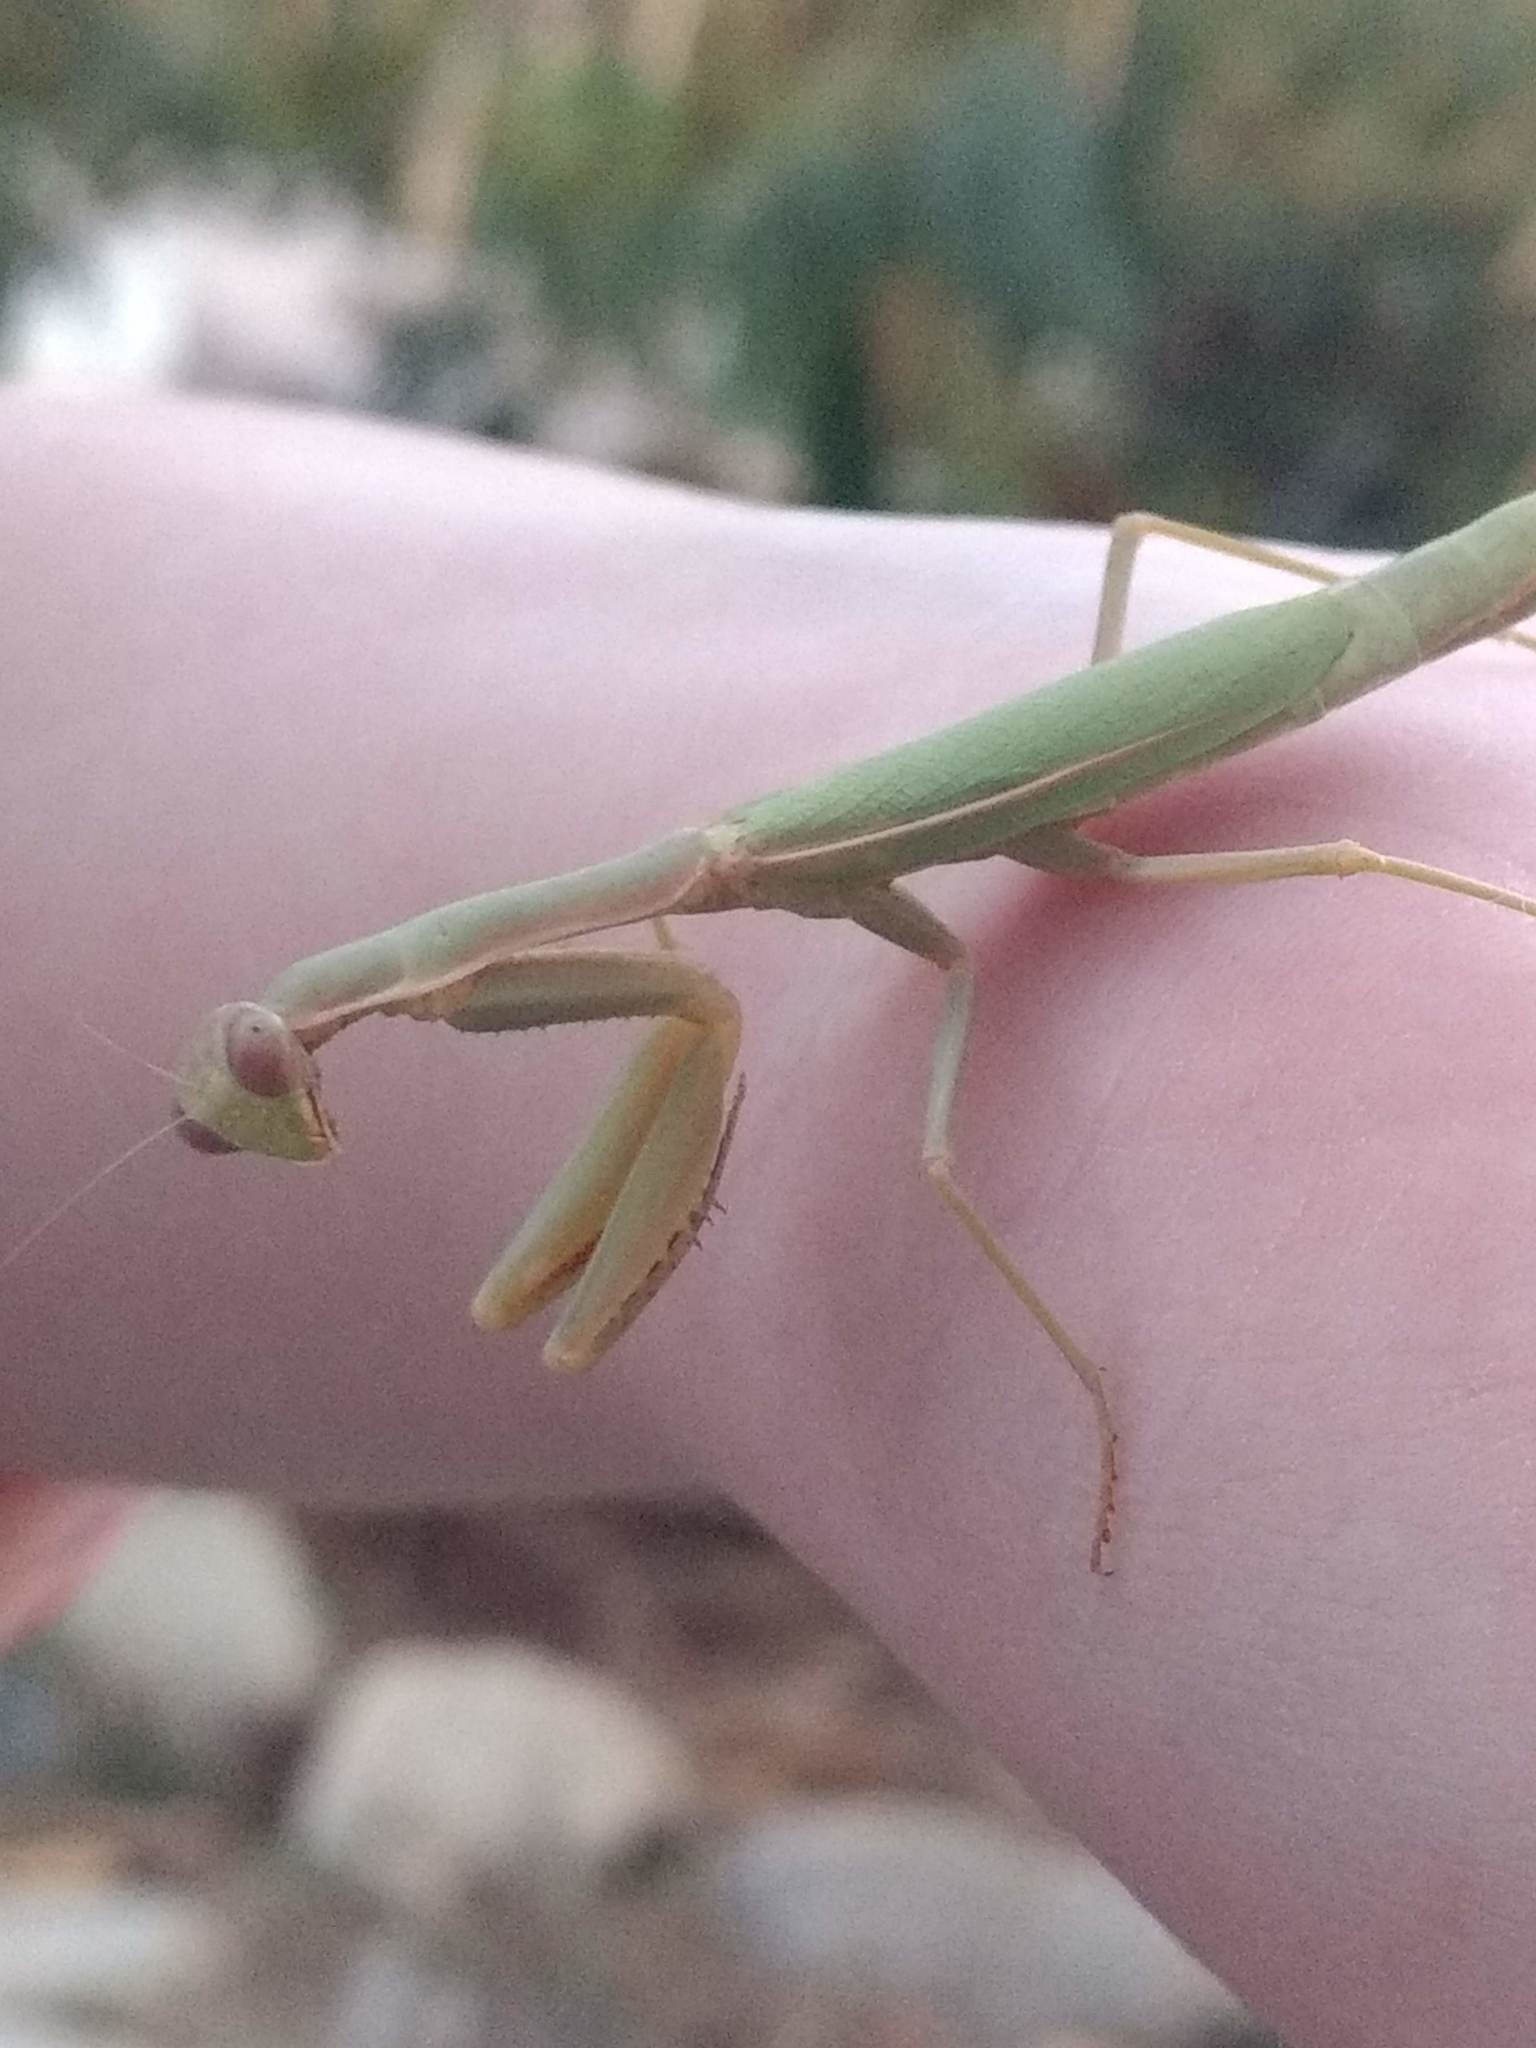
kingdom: Animalia
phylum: Arthropoda
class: Insecta
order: Mantodea
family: Eremiaphilidae
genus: Iris
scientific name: Iris oratoria
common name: Mediterranean mantis
